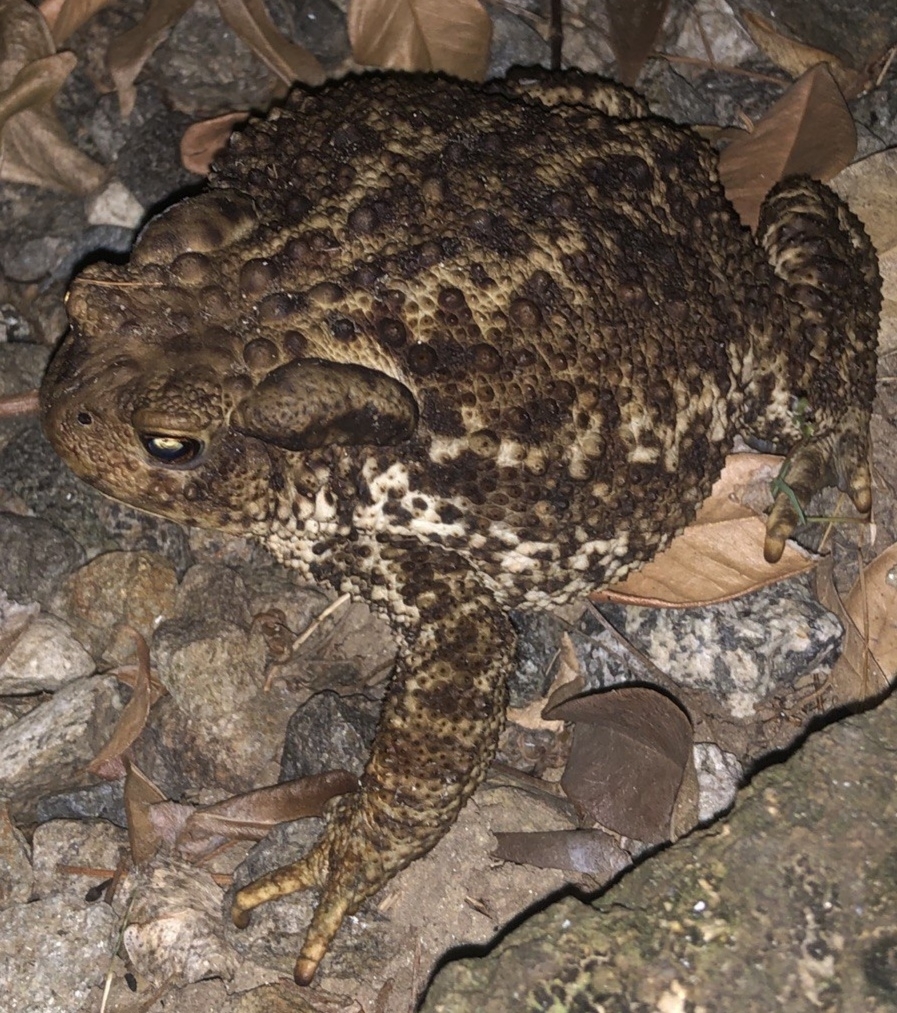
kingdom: Animalia
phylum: Chordata
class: Amphibia
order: Anura
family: Bufonidae
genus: Bufo
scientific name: Bufo bufo
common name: Common toad
